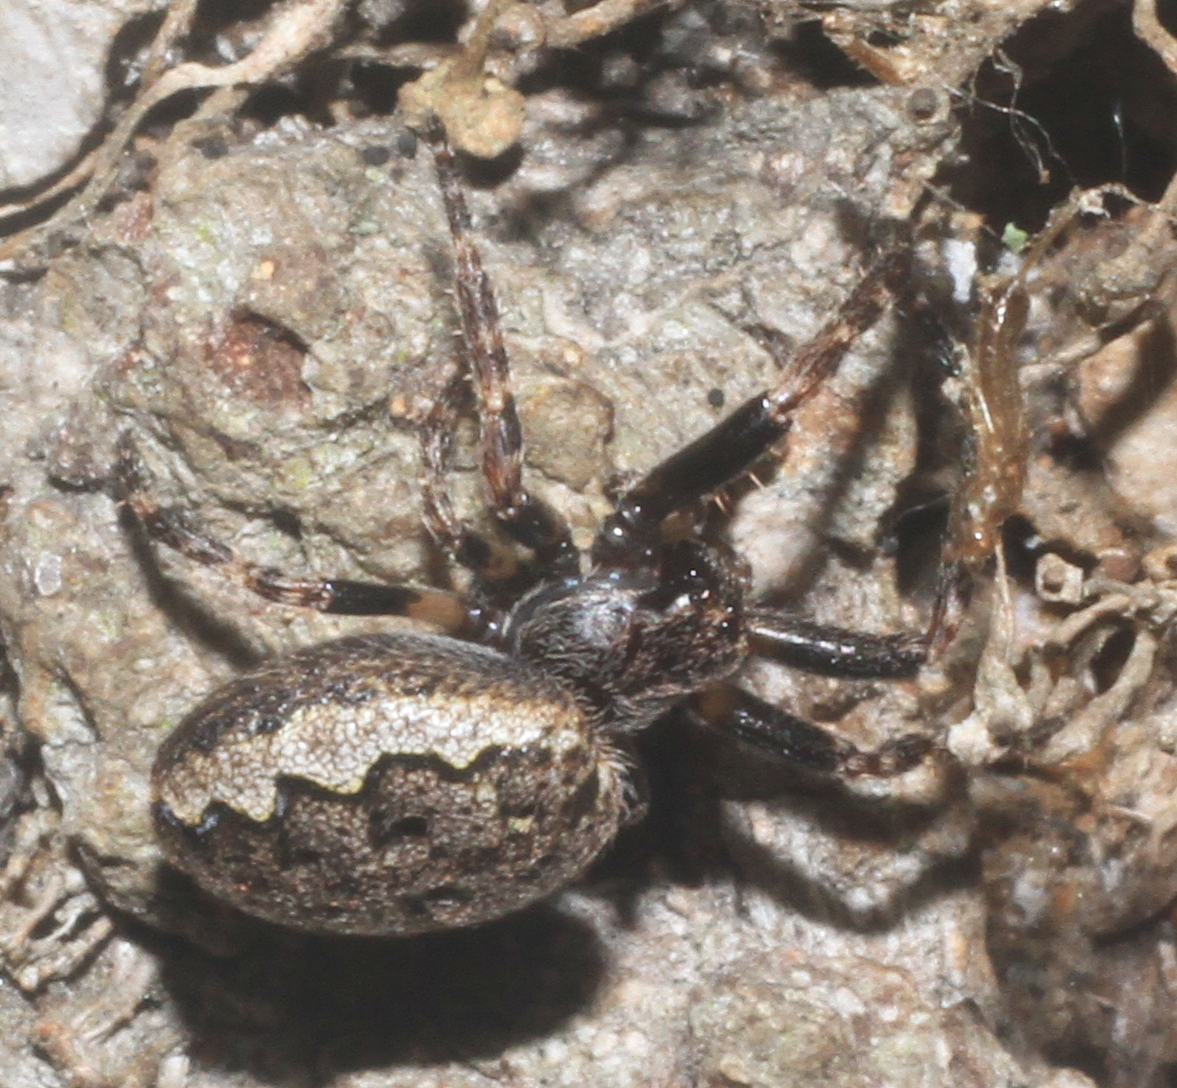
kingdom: Animalia
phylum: Arthropoda
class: Arachnida
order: Araneae
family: Araneidae
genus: Nuctenea
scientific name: Nuctenea umbratica
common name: Toad spider
